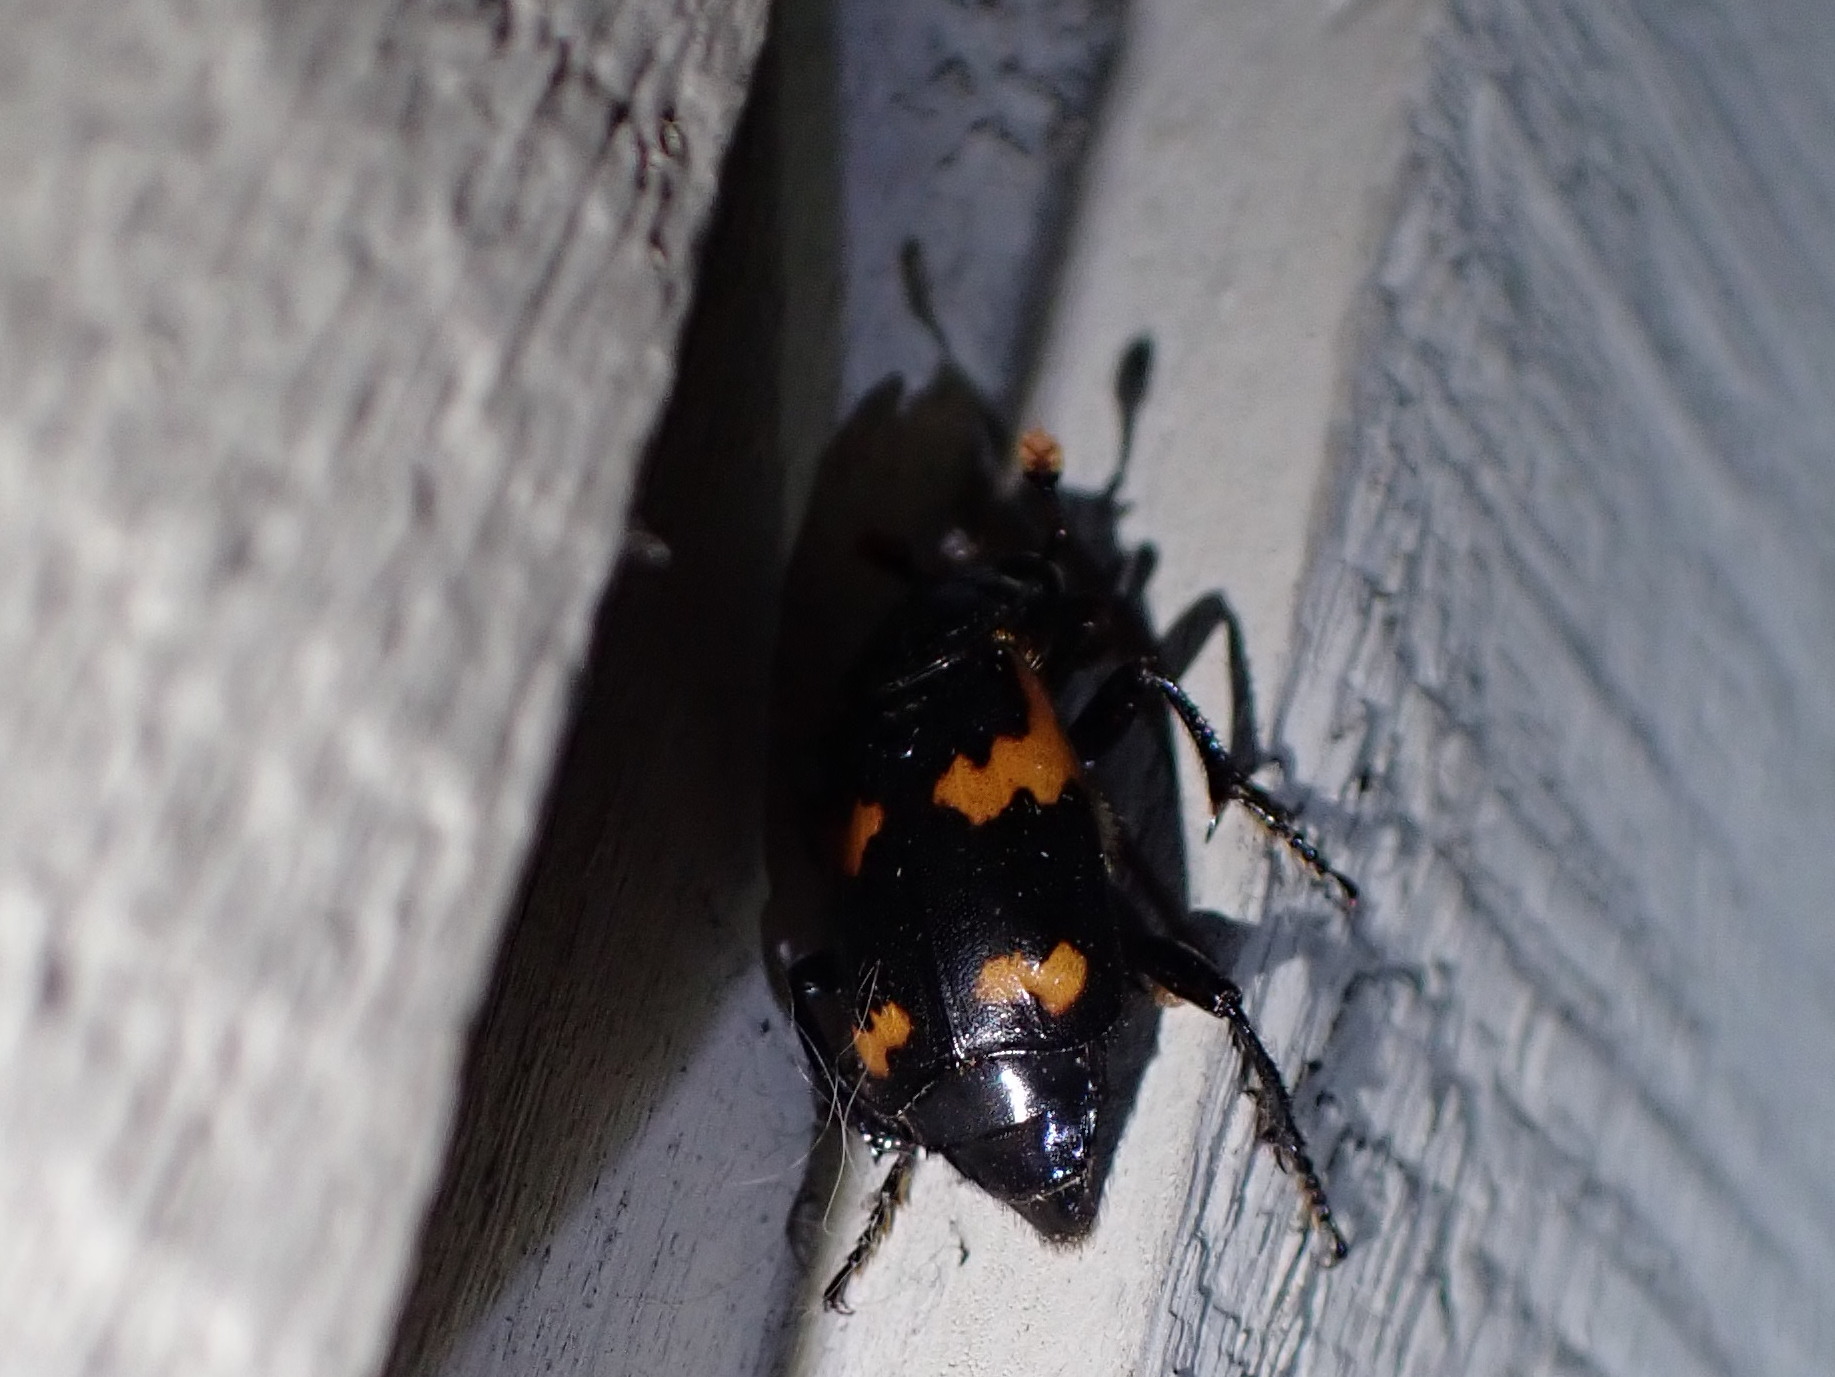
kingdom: Animalia
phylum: Arthropoda
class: Insecta
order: Coleoptera
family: Staphylinidae
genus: Nicrophorus
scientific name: Nicrophorus sayi
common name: Say's burying beetle
